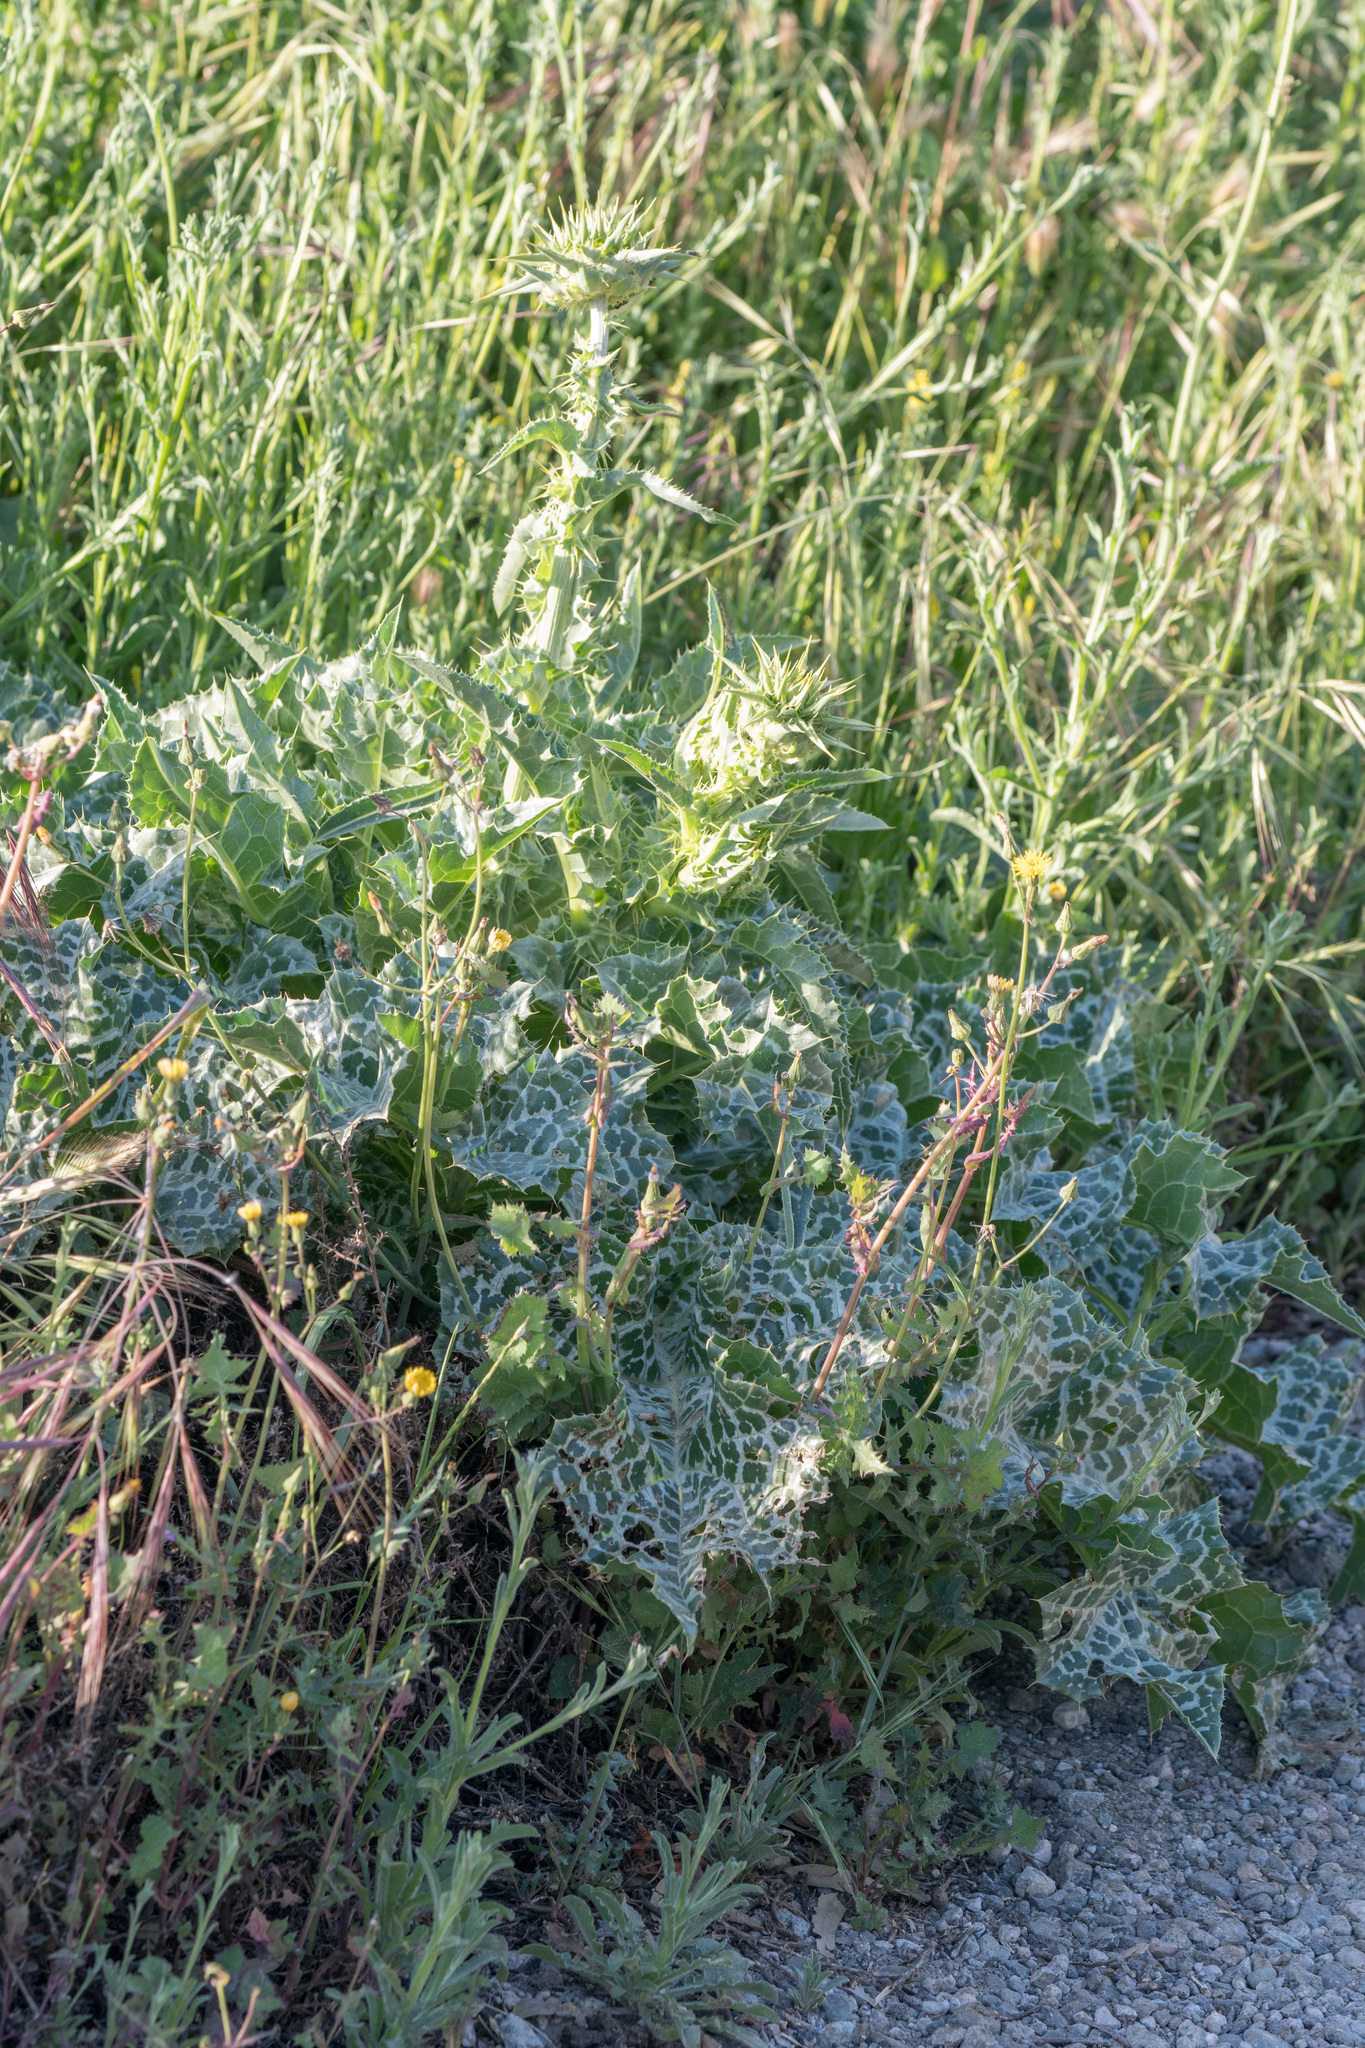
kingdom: Plantae
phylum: Tracheophyta
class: Magnoliopsida
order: Asterales
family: Asteraceae
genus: Silybum
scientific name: Silybum marianum
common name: Milk thistle
